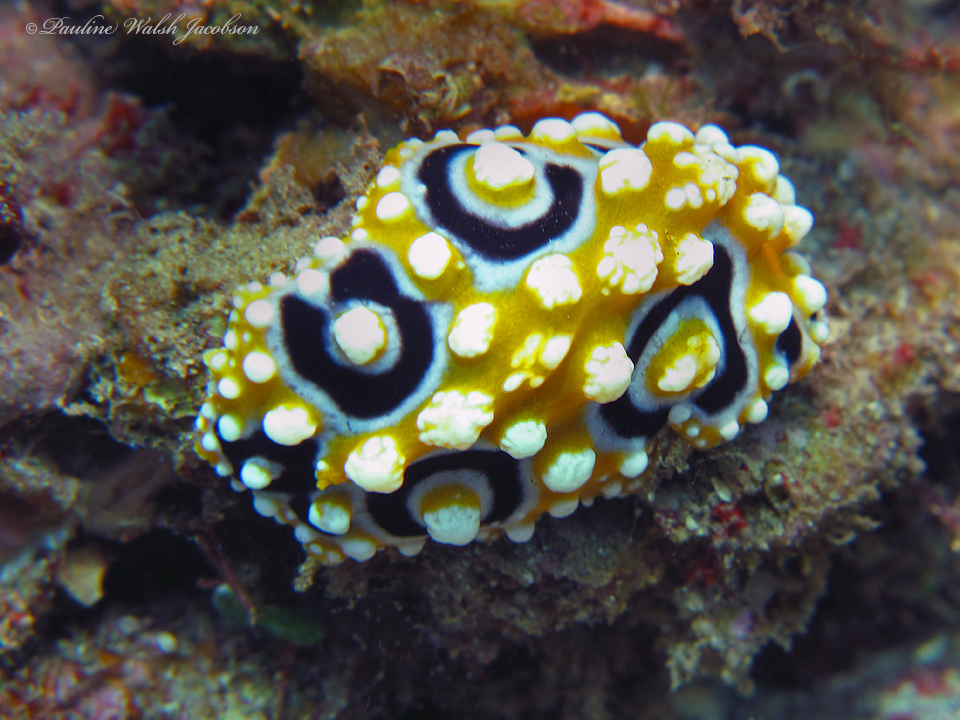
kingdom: Animalia
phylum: Mollusca
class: Gastropoda
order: Nudibranchia
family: Phyllidiidae
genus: Phyllidia
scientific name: Phyllidia ocellata
